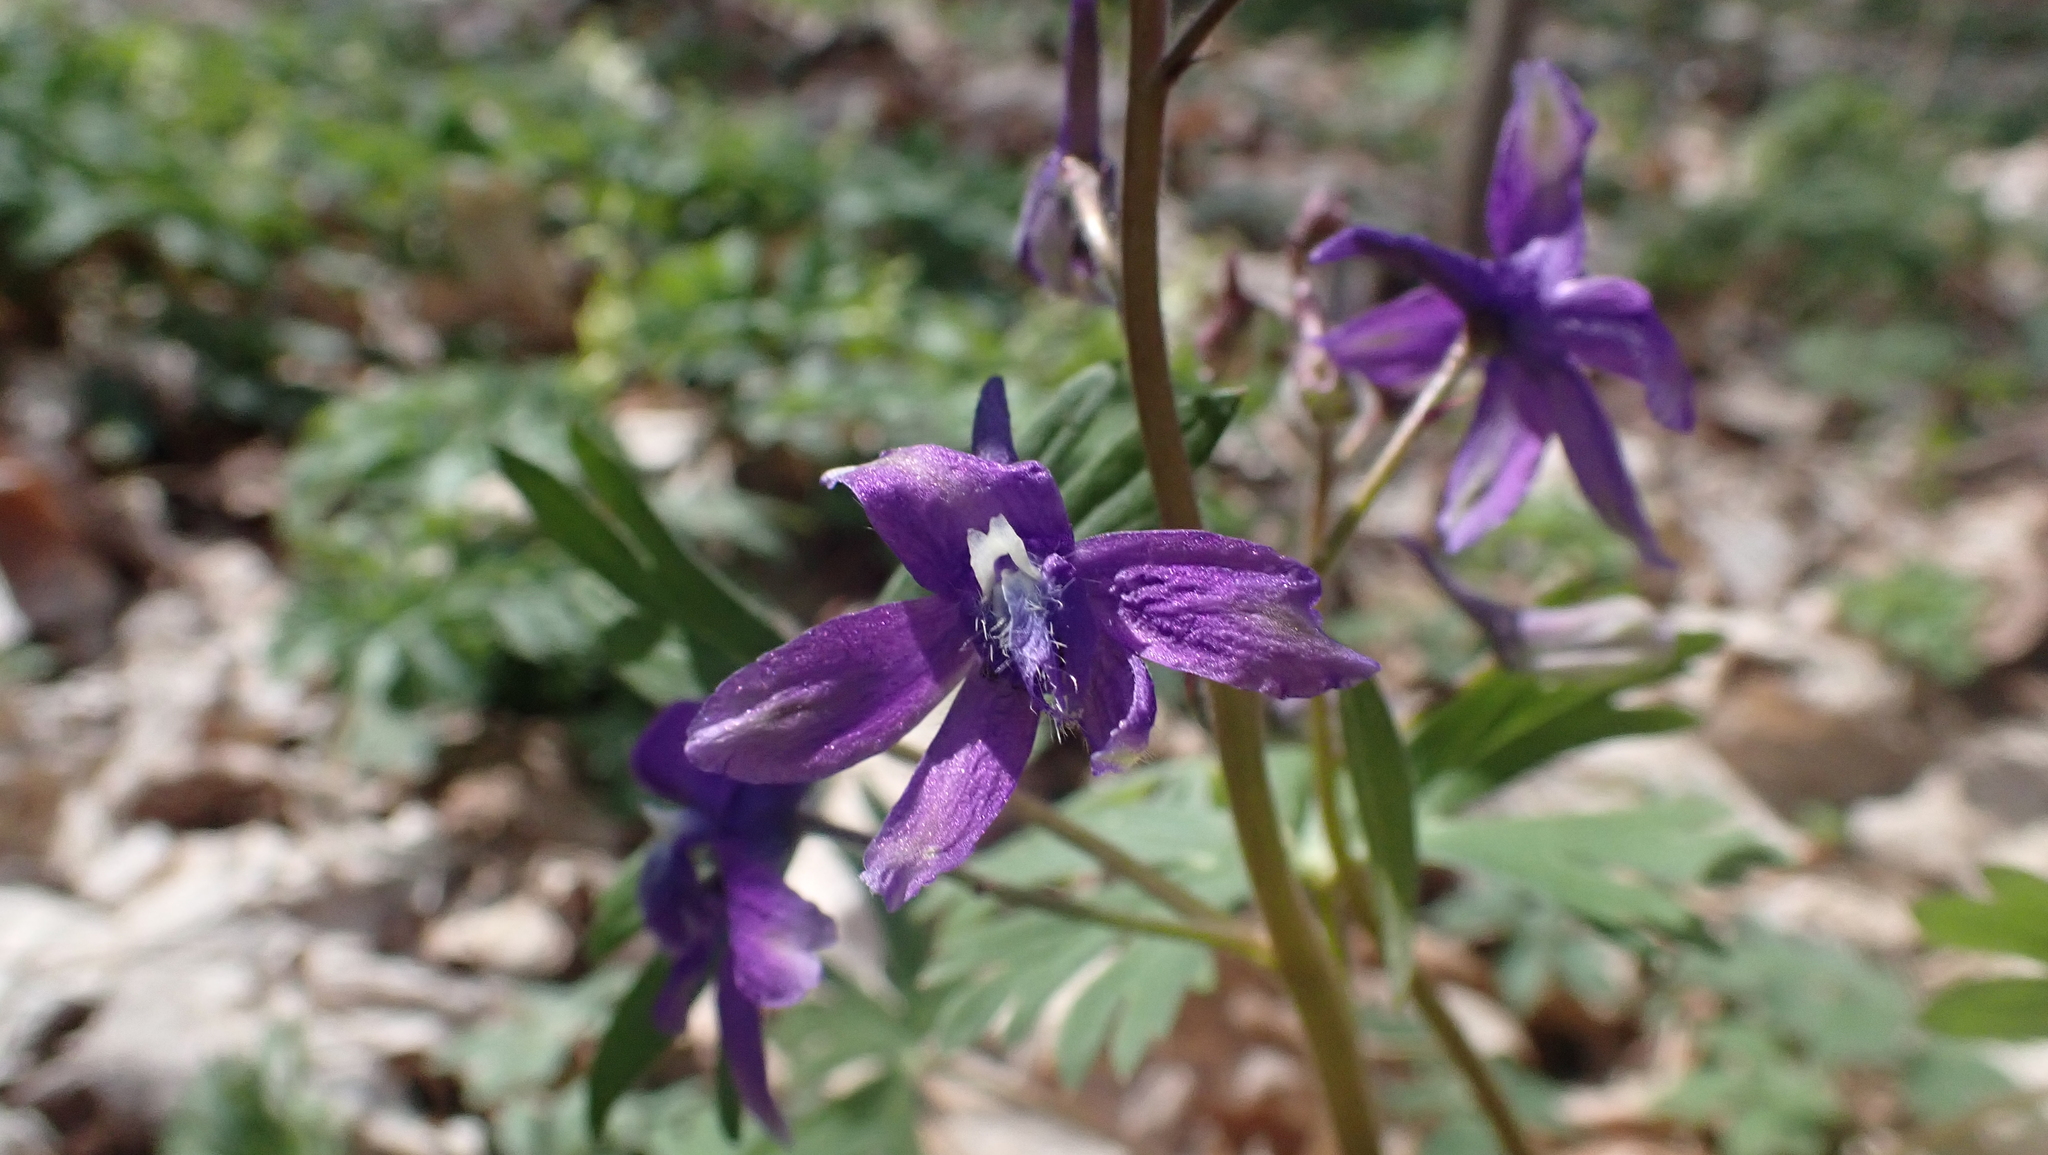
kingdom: Plantae
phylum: Tracheophyta
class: Magnoliopsida
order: Ranunculales
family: Ranunculaceae
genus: Delphinium
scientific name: Delphinium tricorne
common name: Dwarf larkspur
